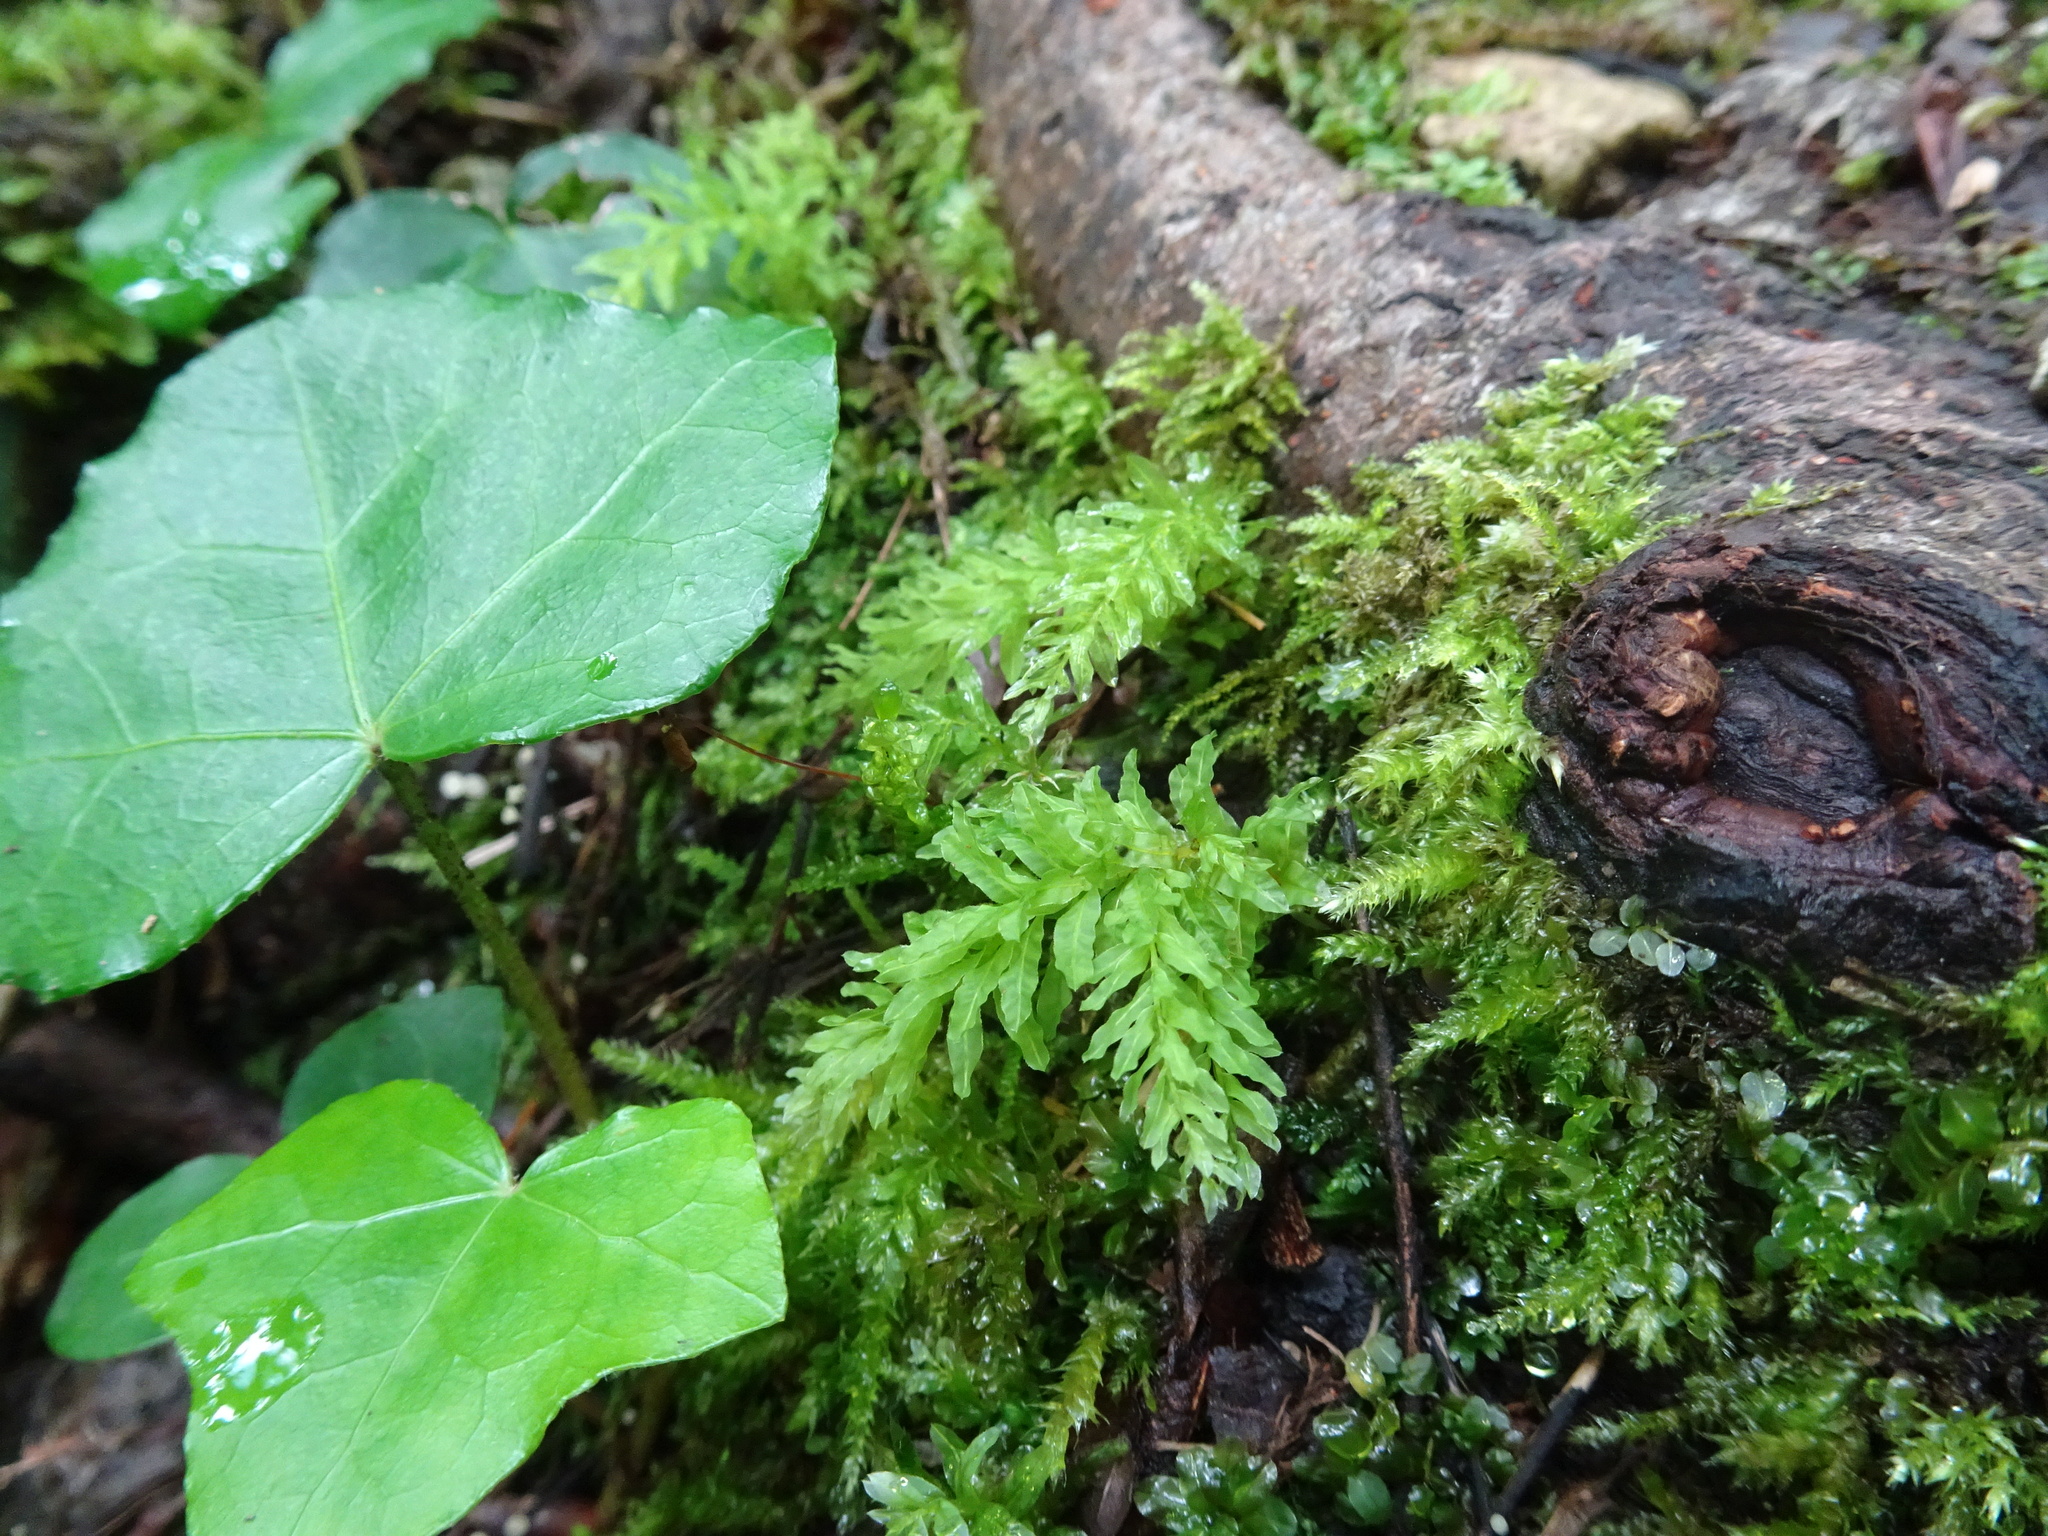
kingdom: Plantae
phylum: Bryophyta
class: Bryopsida
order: Bryales
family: Mniaceae
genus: Plagiomnium
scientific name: Plagiomnium undulatum
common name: Hart's-tongue thyme-moss
